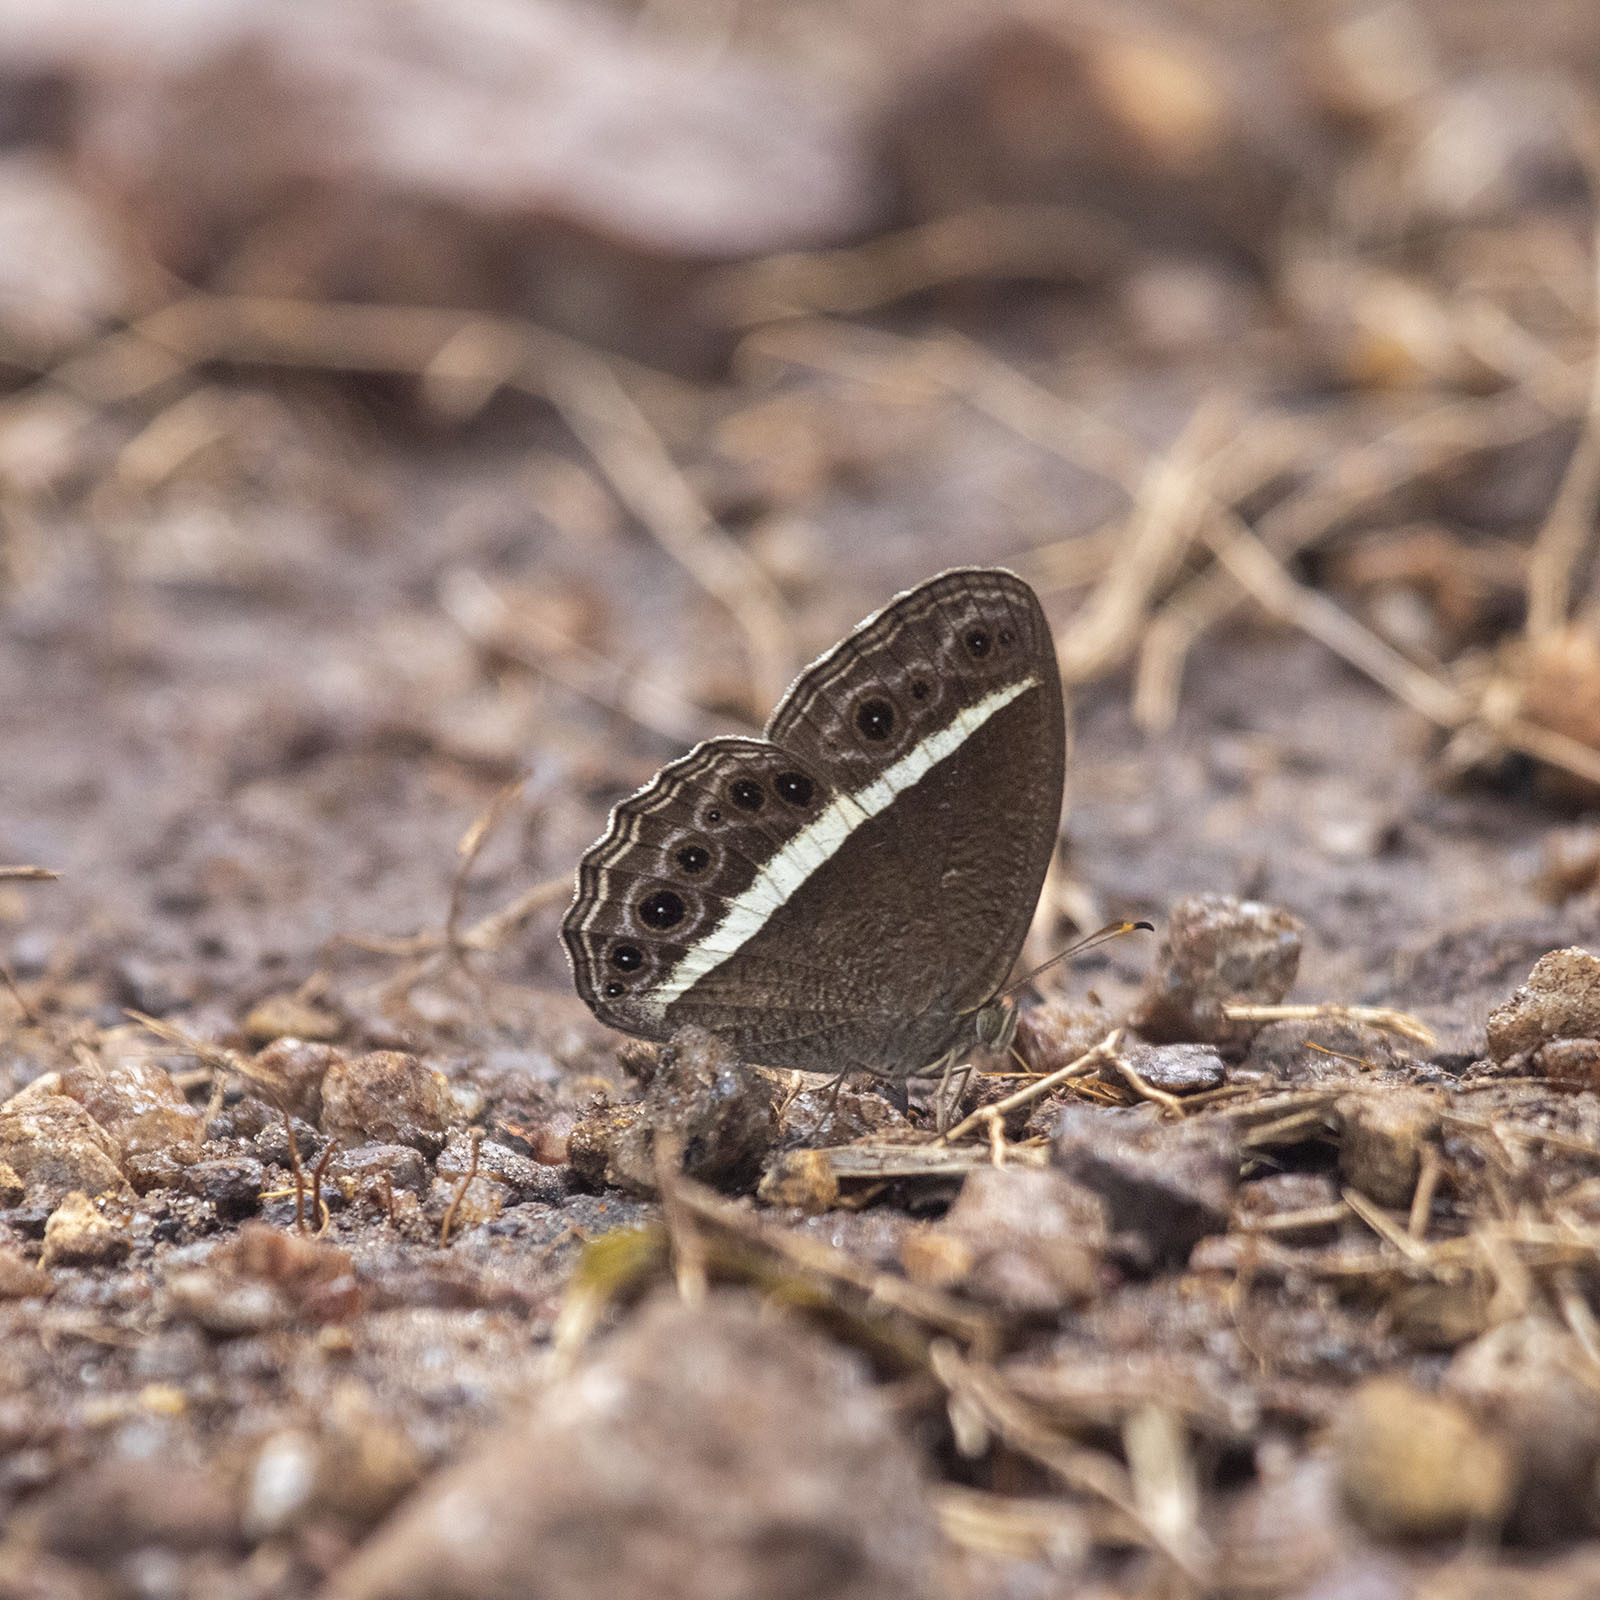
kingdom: Animalia
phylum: Arthropoda
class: Insecta
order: Lepidoptera
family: Nymphalidae
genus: Mycalesis
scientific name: Mycalesis Telinga spec
